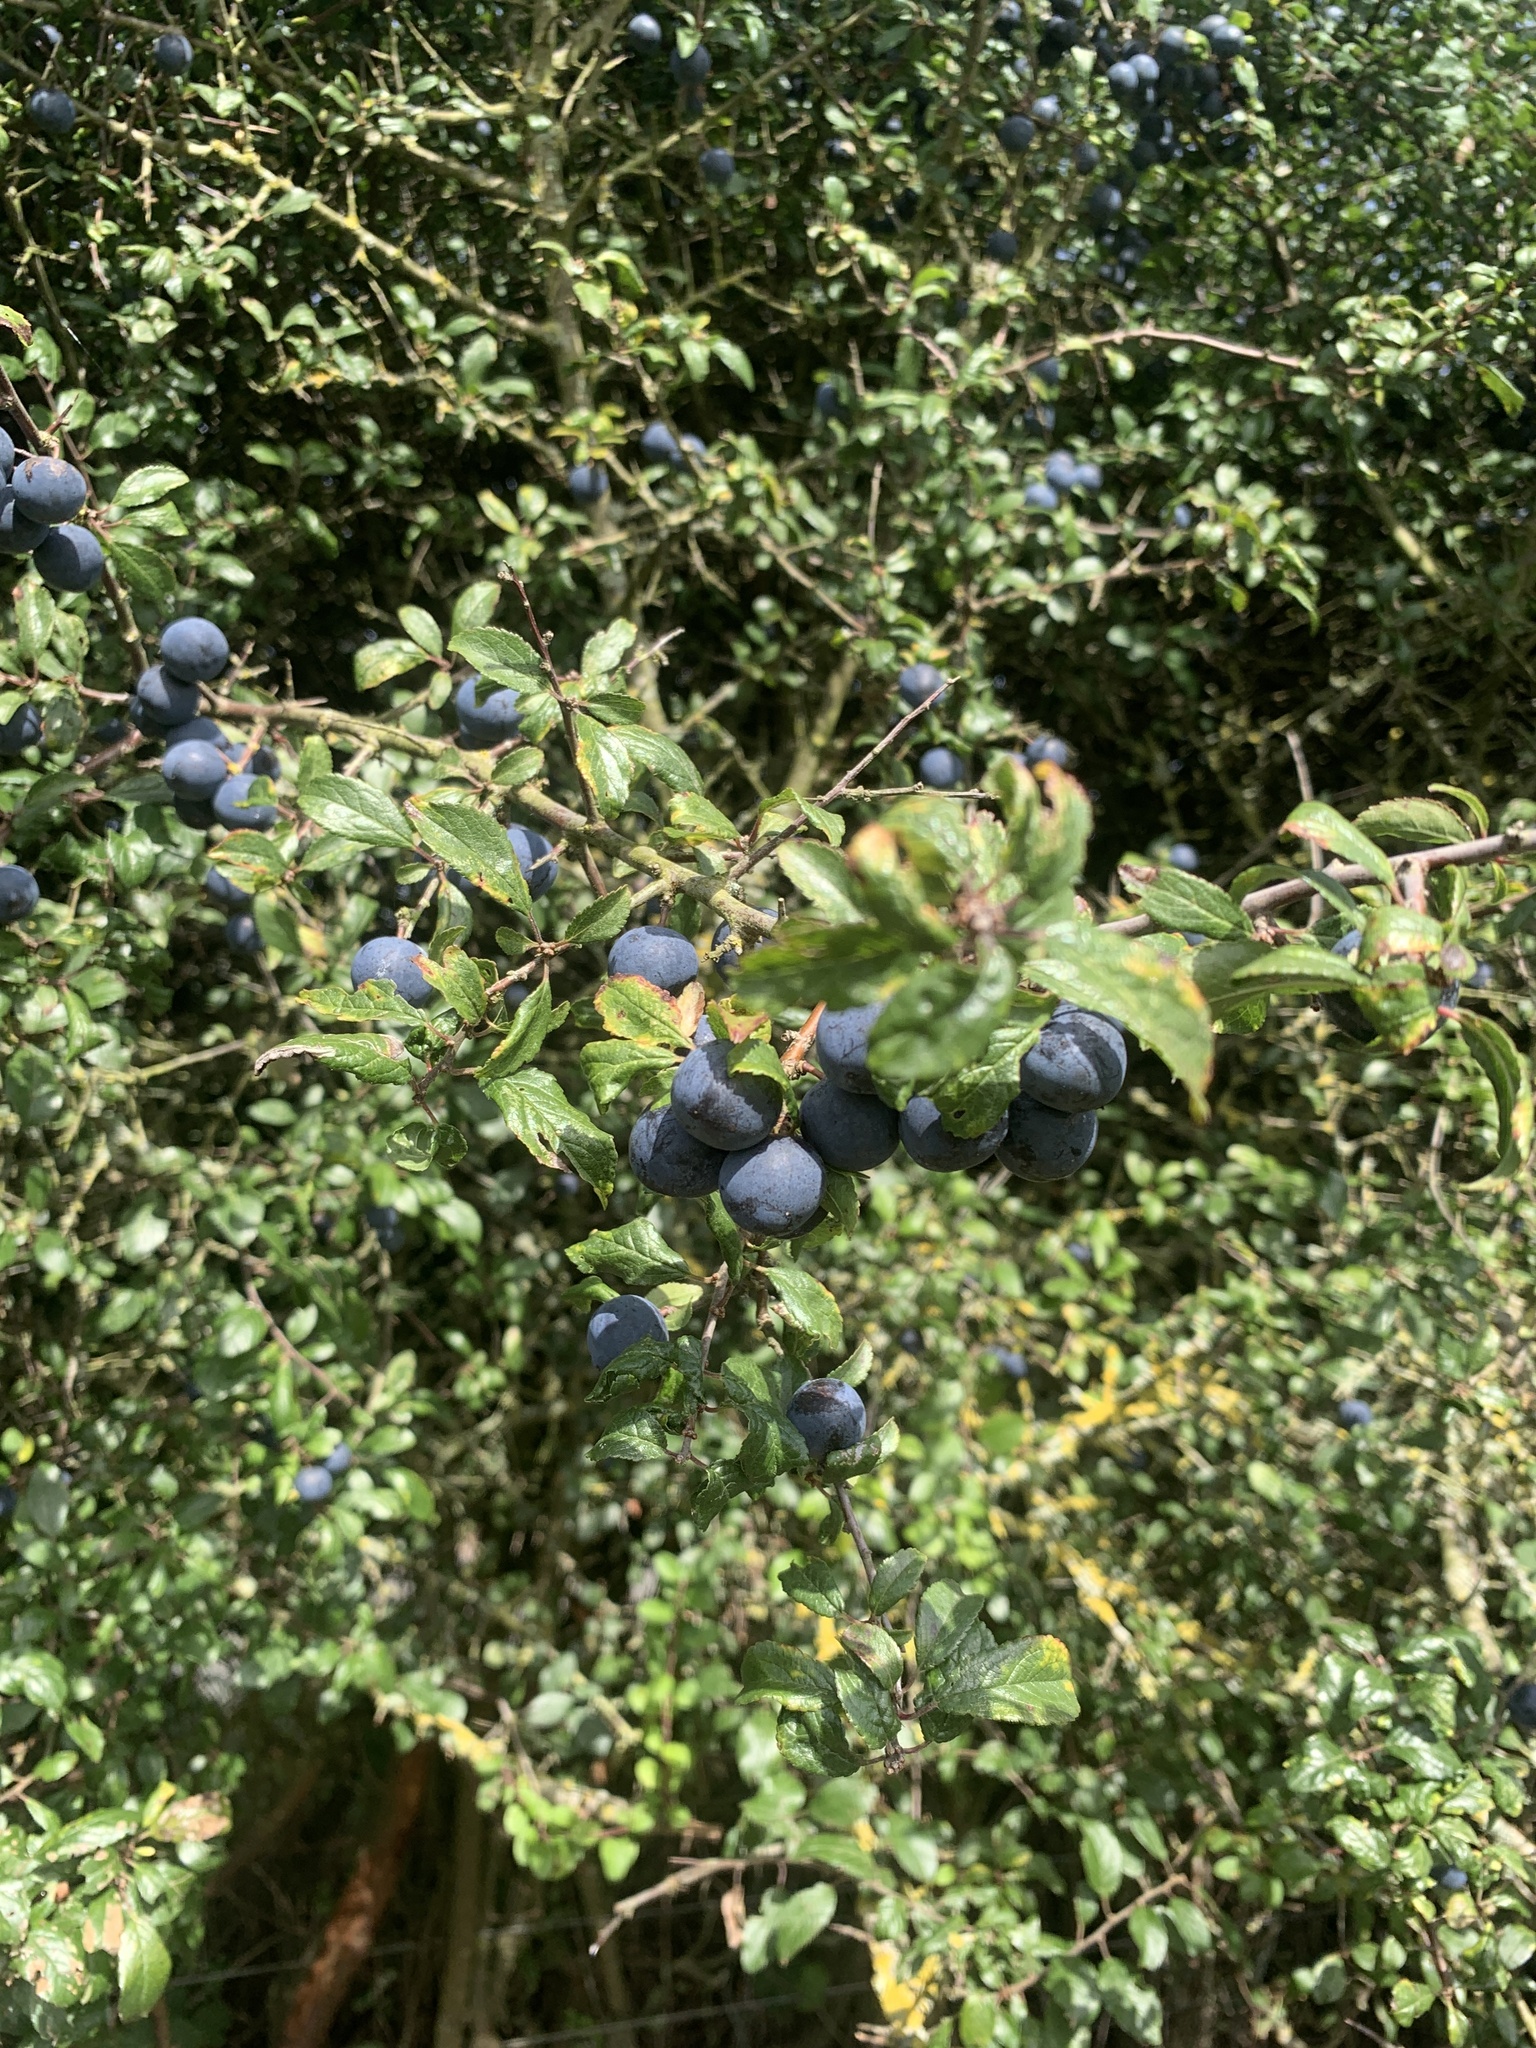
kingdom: Plantae
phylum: Tracheophyta
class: Magnoliopsida
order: Rosales
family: Rosaceae
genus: Prunus
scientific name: Prunus spinosa
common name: Blackthorn
